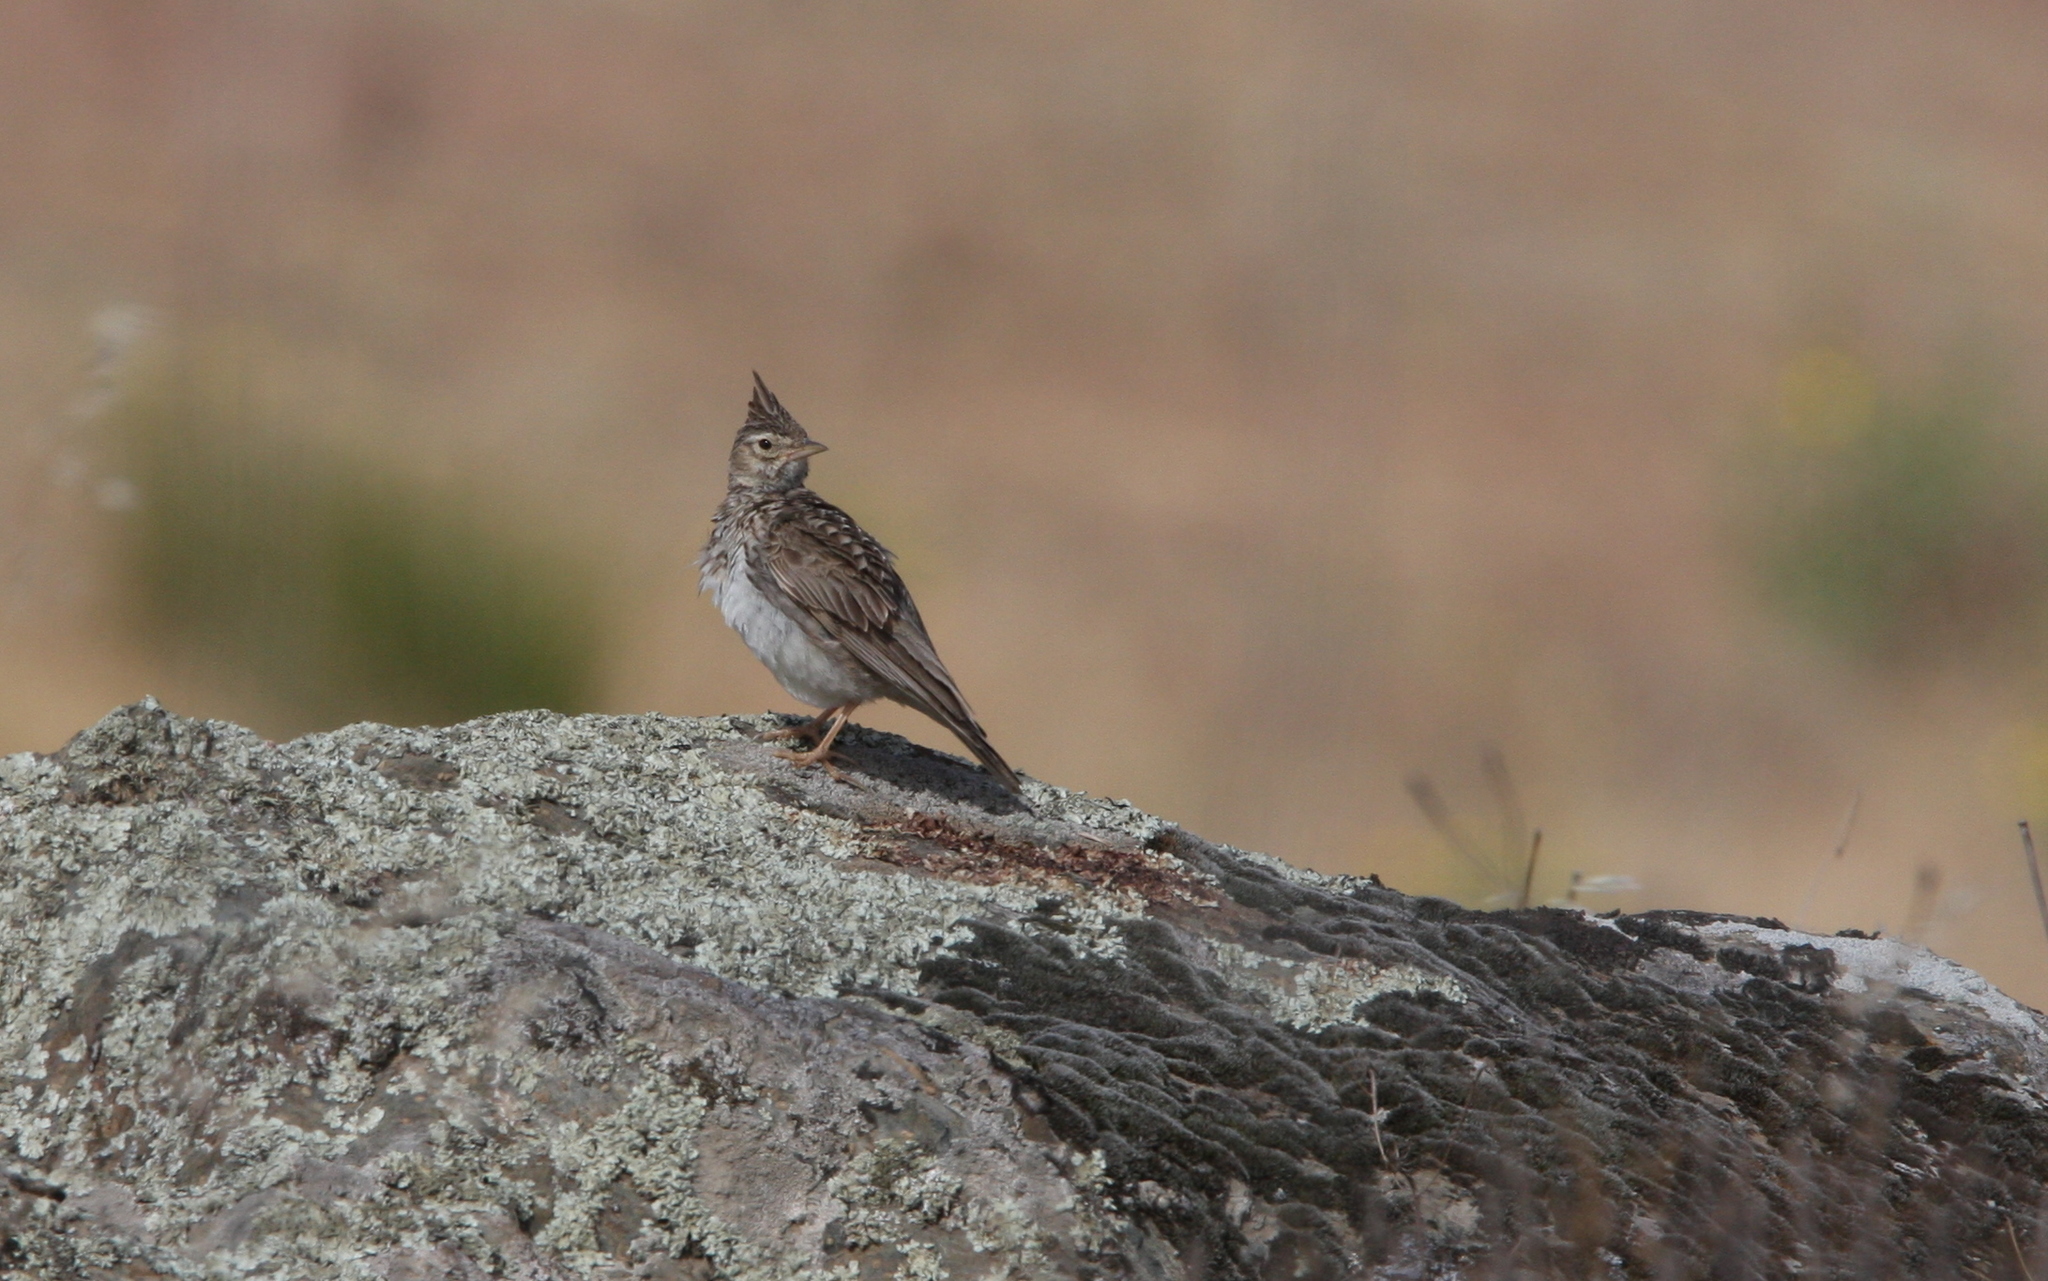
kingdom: Animalia
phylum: Chordata
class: Aves
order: Passeriformes
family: Alaudidae
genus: Galerida
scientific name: Galerida cristata
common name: Crested lark
